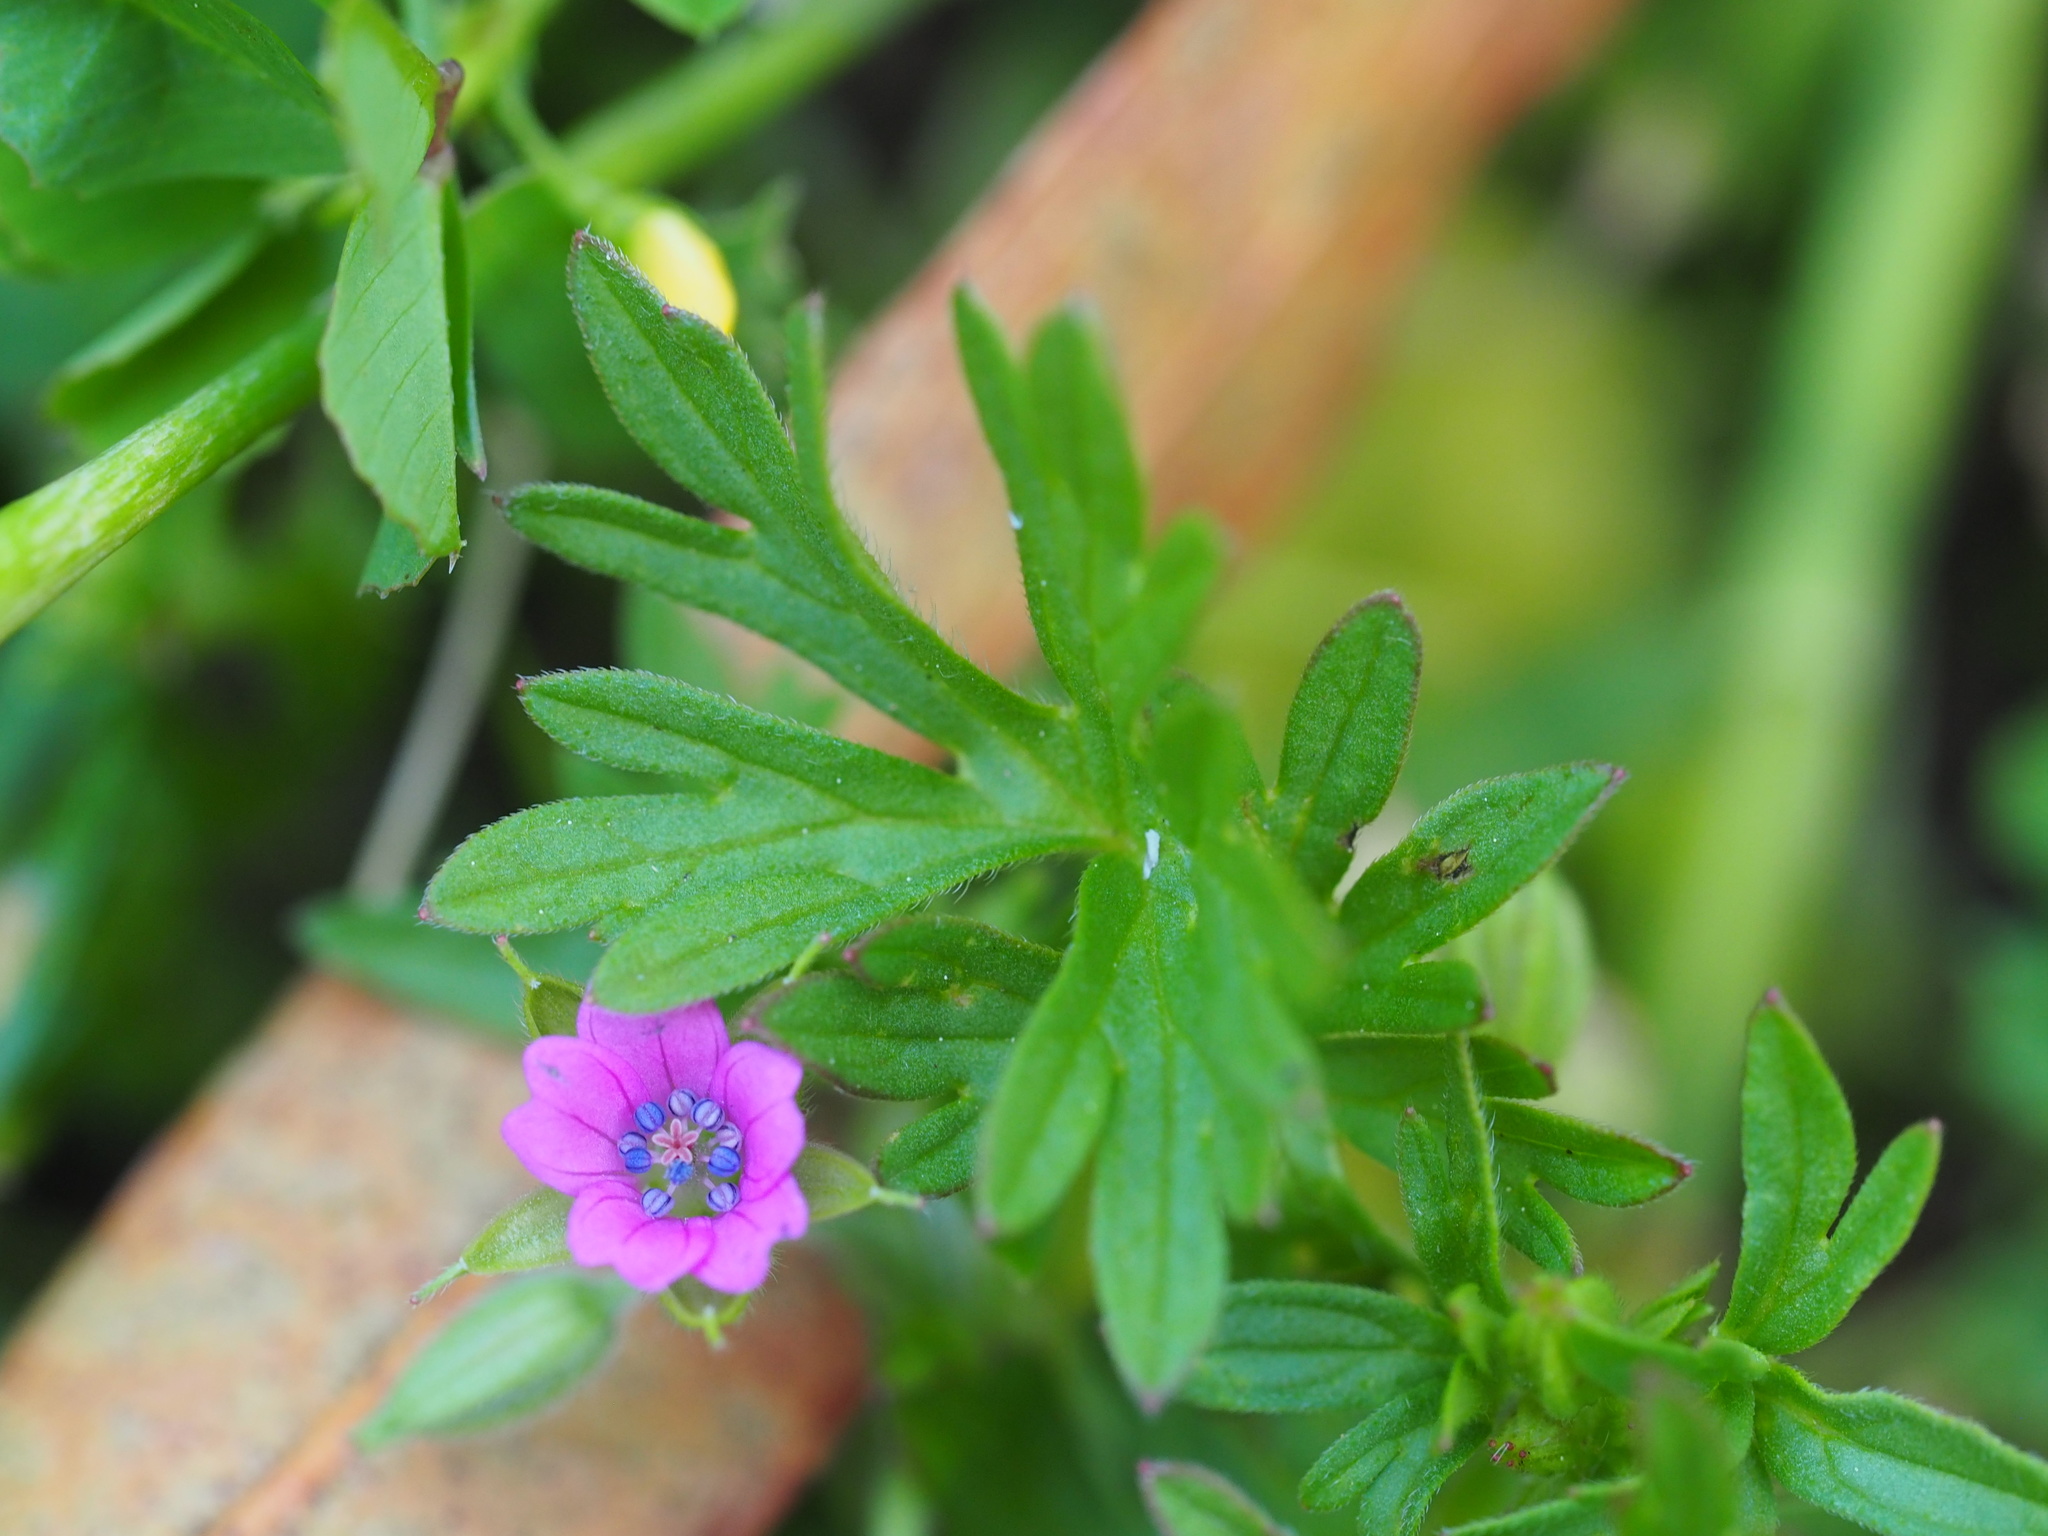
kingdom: Plantae
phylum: Tracheophyta
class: Magnoliopsida
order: Geraniales
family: Geraniaceae
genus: Geranium
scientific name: Geranium dissectum
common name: Cut-leaved crane's-bill
